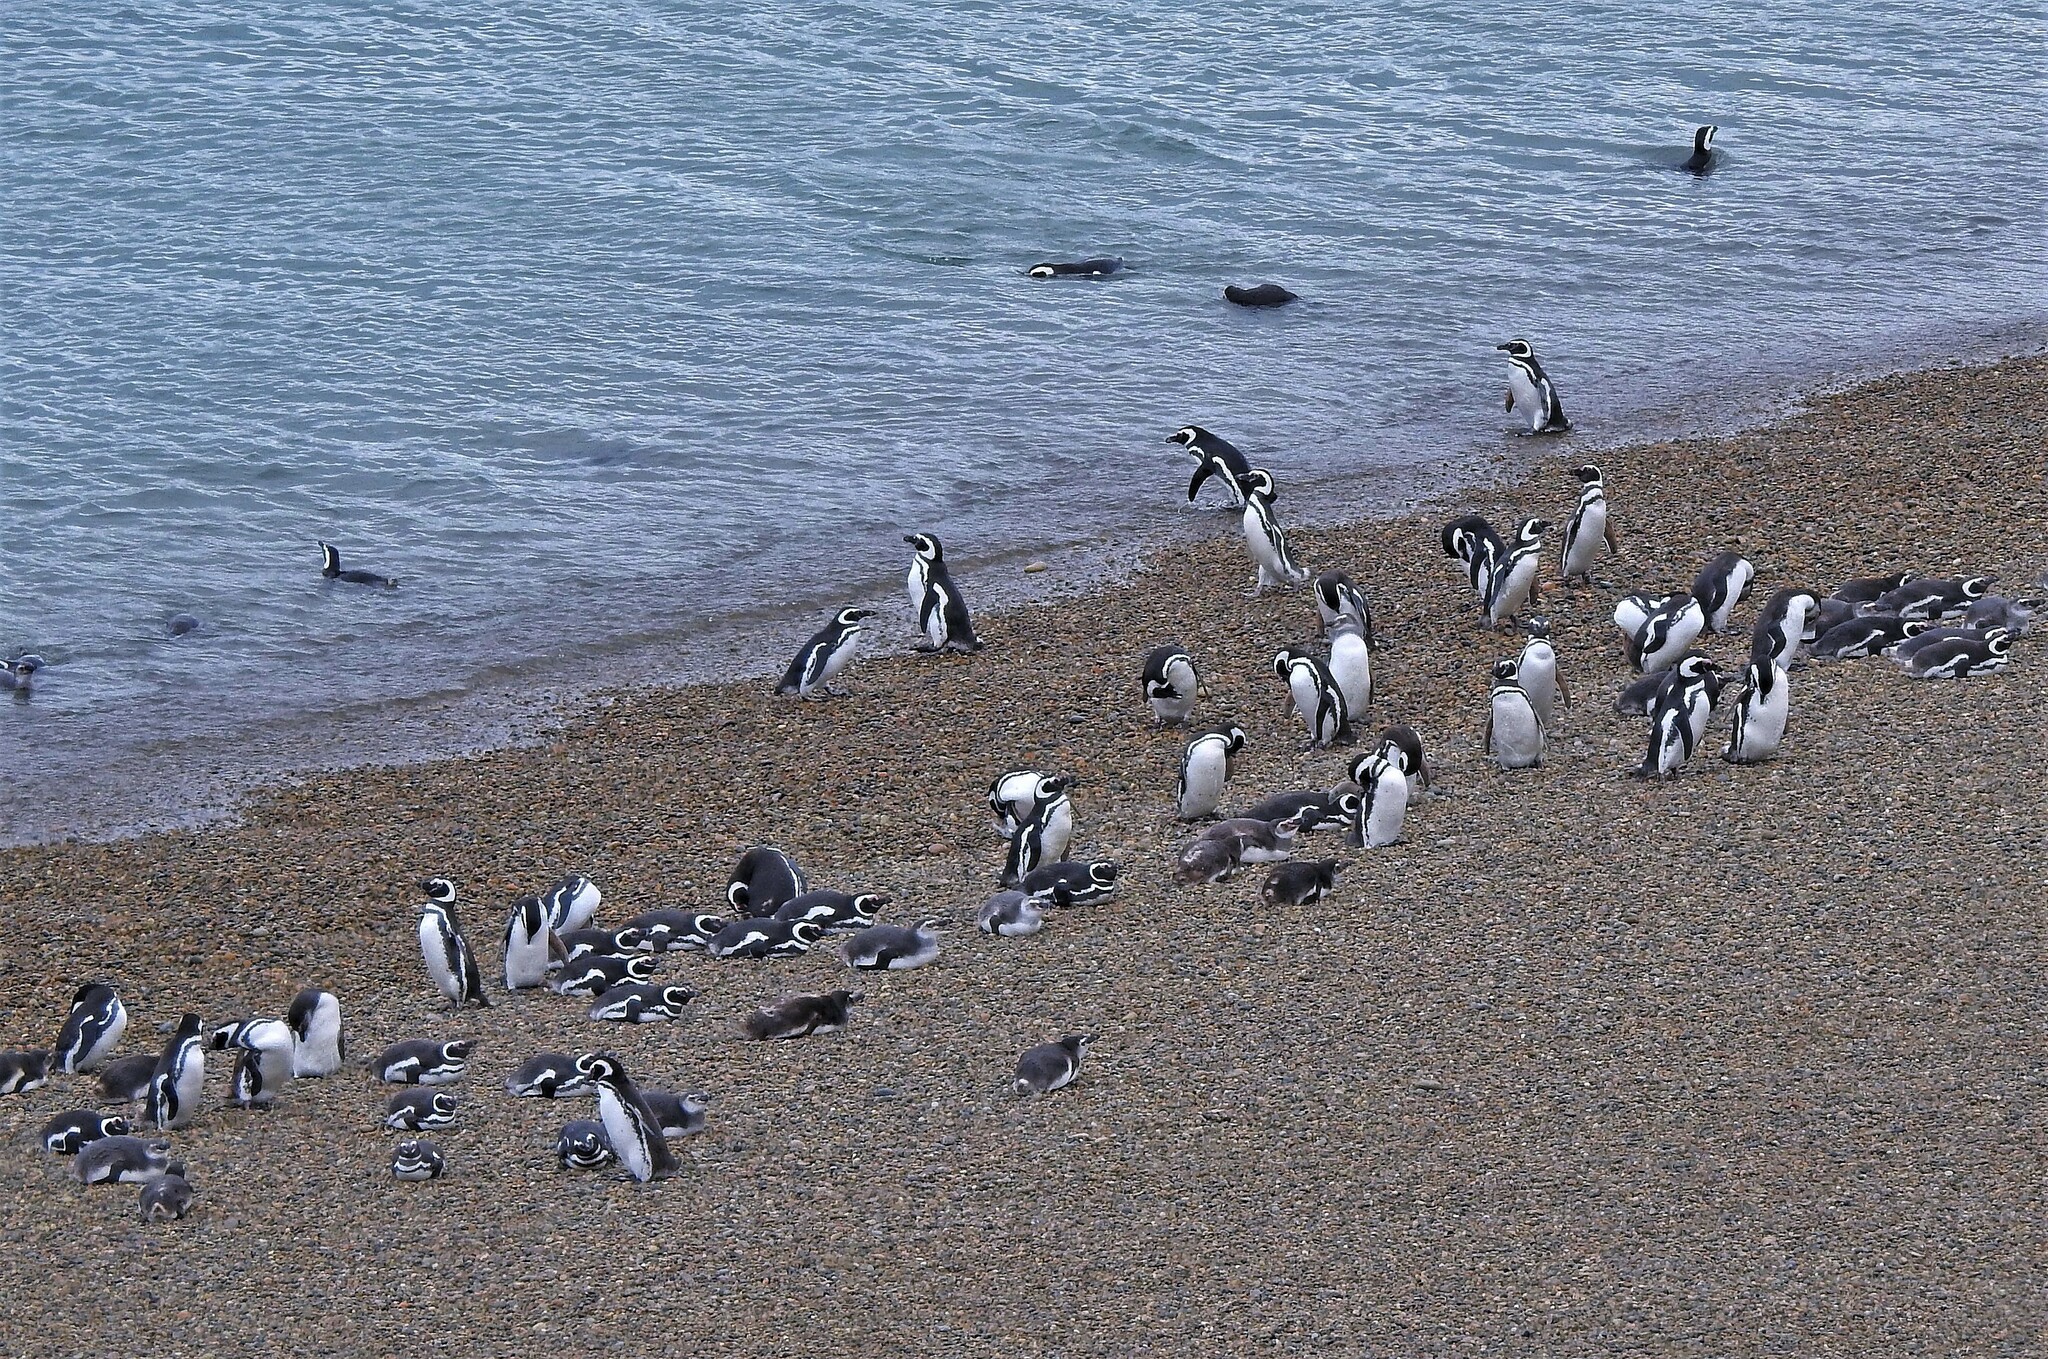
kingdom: Animalia
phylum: Chordata
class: Aves
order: Sphenisciformes
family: Spheniscidae
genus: Spheniscus
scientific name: Spheniscus magellanicus
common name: Magellanic penguin
